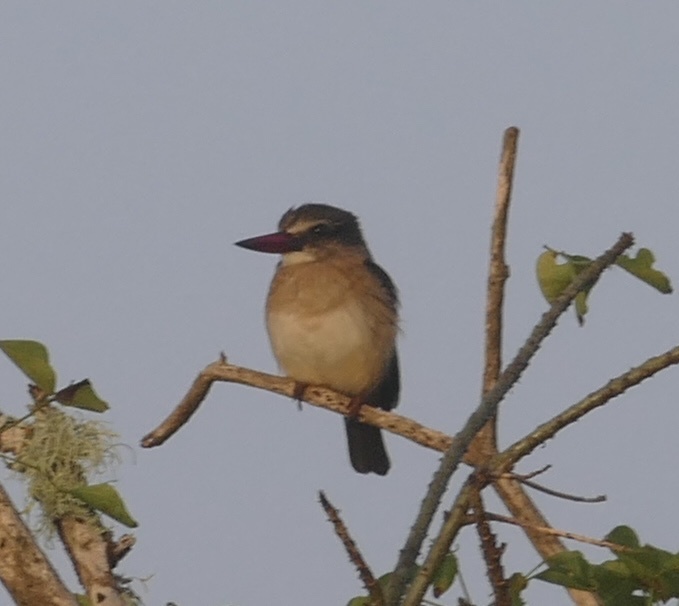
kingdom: Animalia
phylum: Chordata
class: Aves
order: Coraciiformes
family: Alcedinidae
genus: Halcyon
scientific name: Halcyon albiventris
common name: Brown-hooded kingfisher
